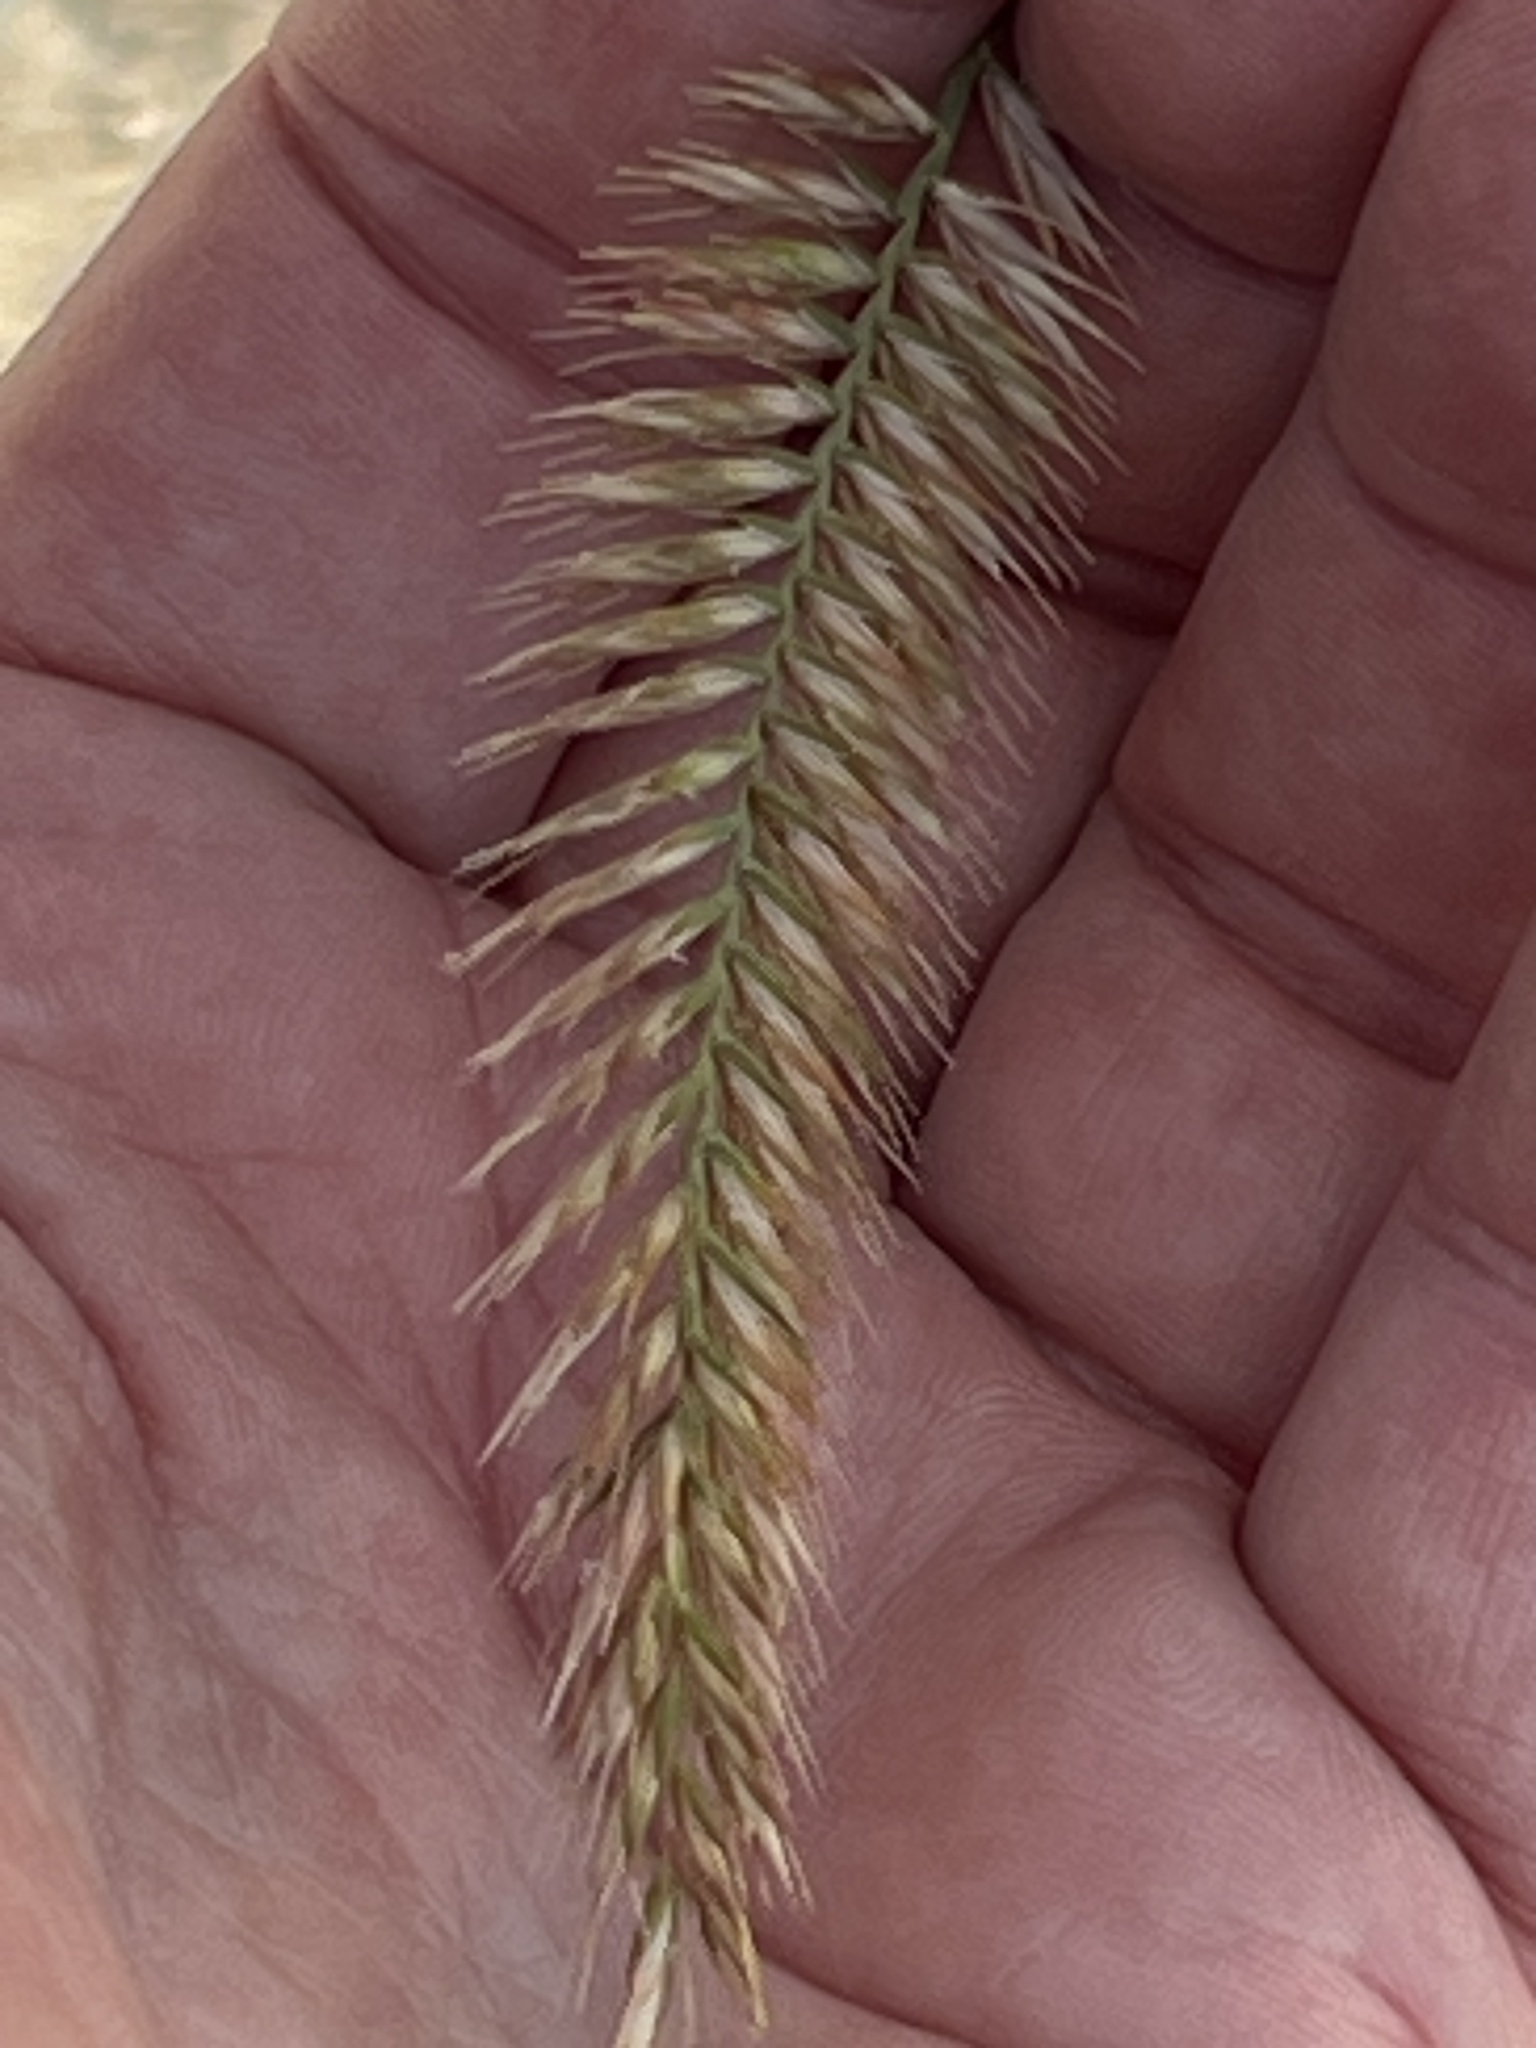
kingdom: Plantae
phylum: Tracheophyta
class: Liliopsida
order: Poales
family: Poaceae
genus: Agropyron
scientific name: Agropyron cristatum
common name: Crested wheatgrass
